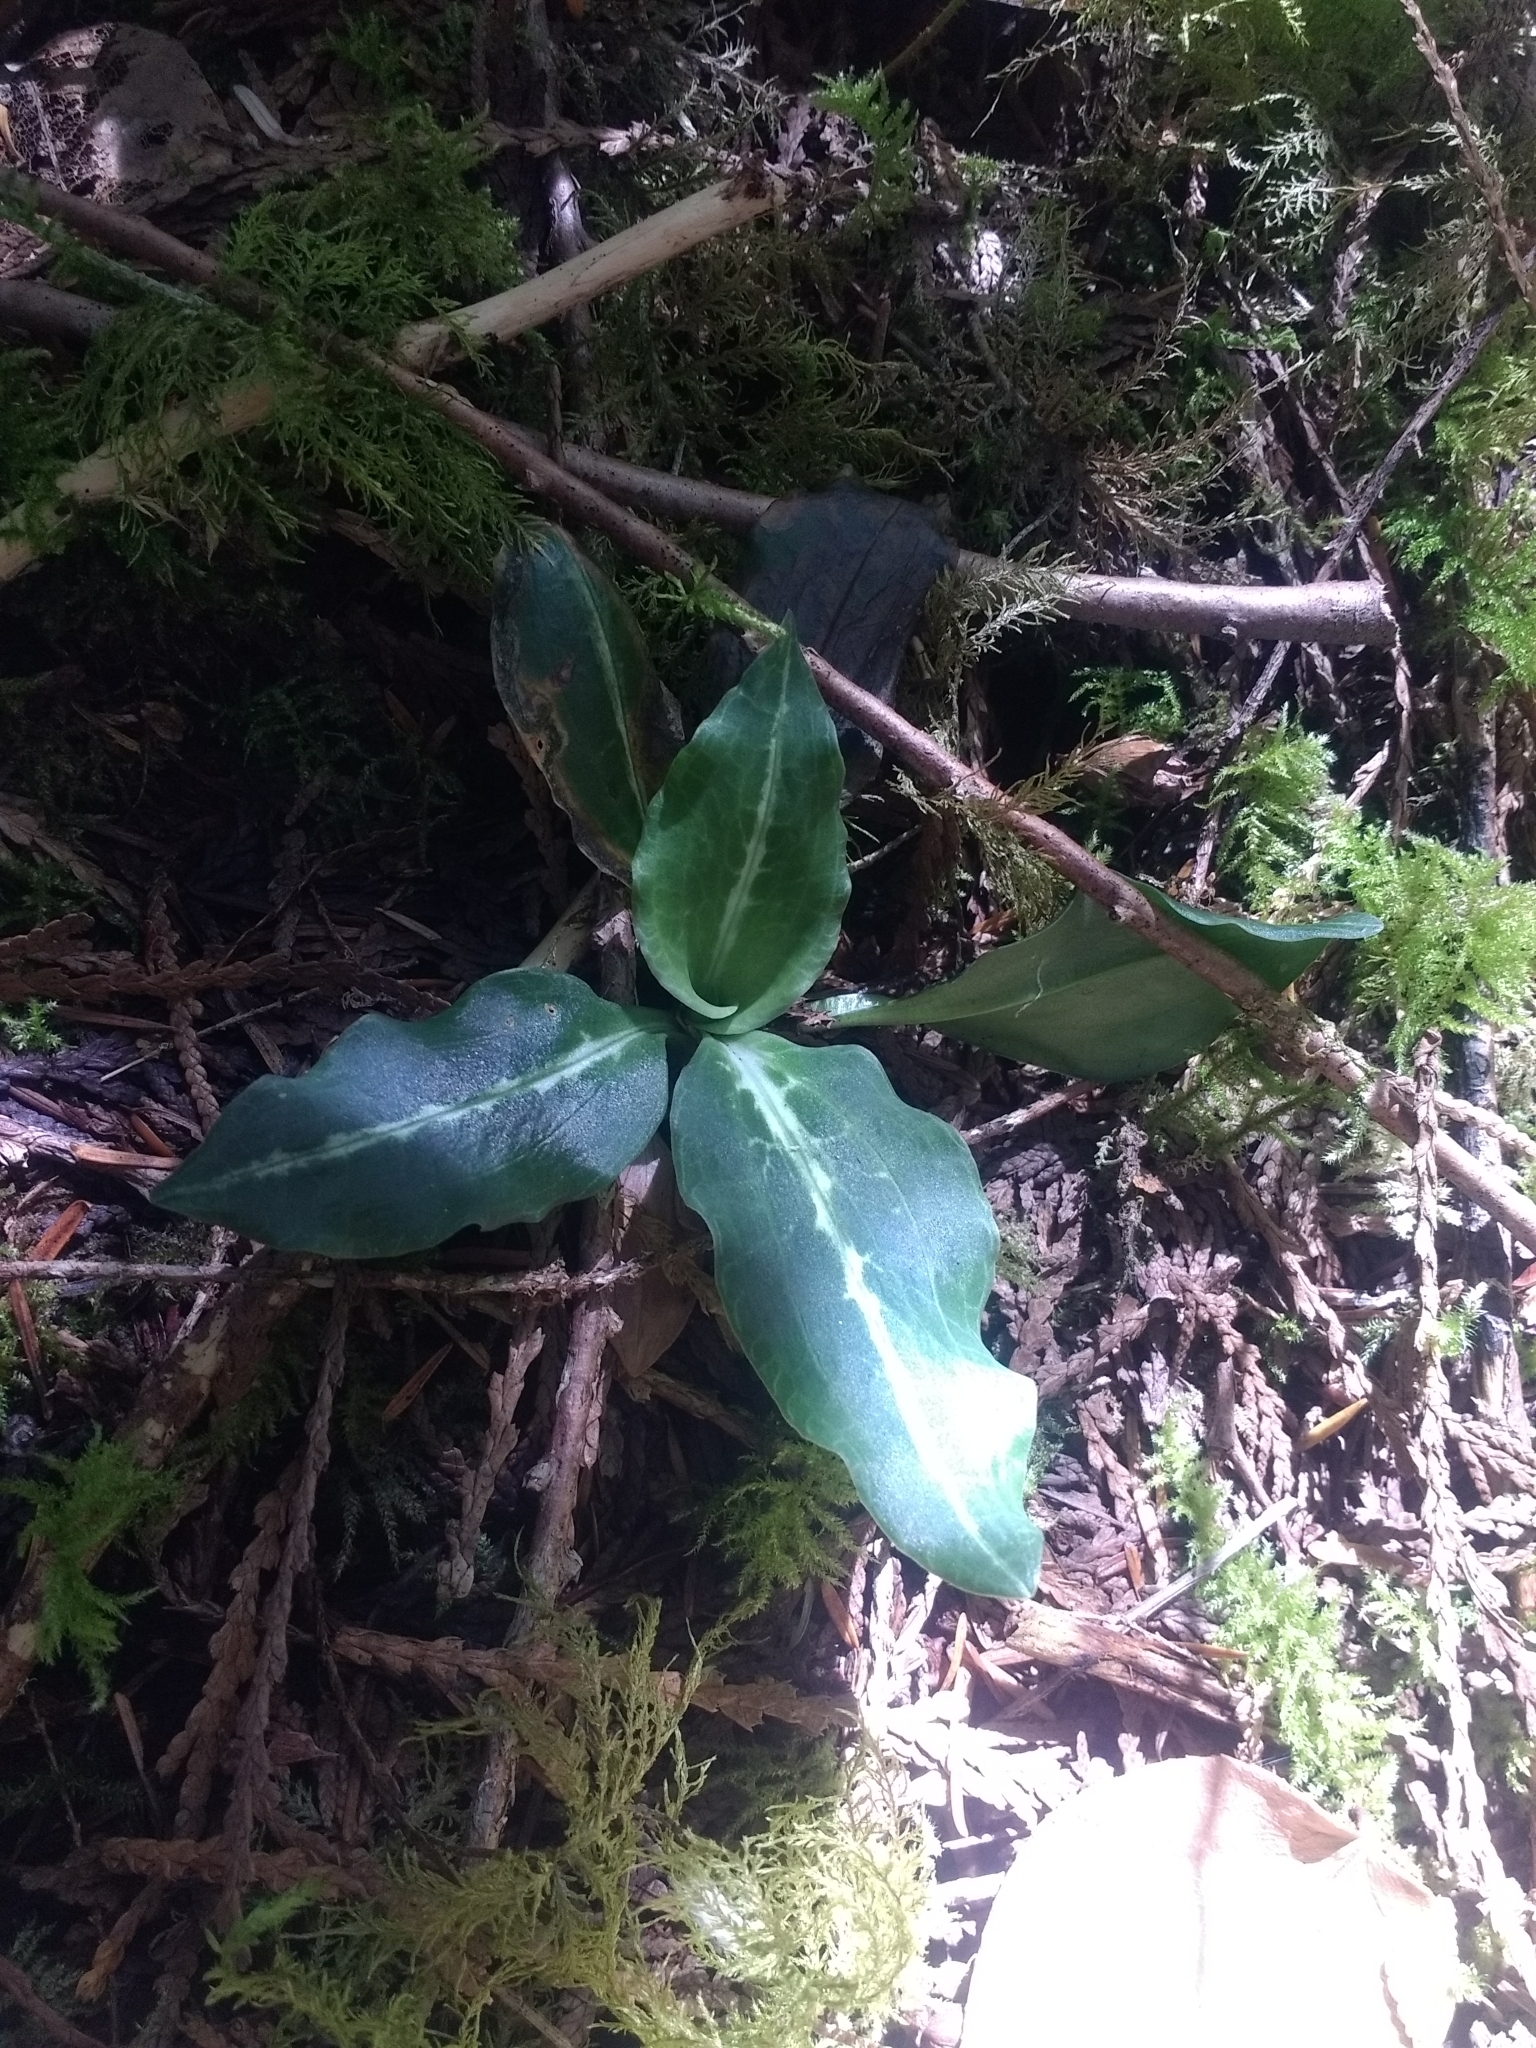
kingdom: Plantae
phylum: Tracheophyta
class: Liliopsida
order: Asparagales
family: Orchidaceae
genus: Goodyera
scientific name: Goodyera oblongifolia
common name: Giant rattlesnake-plantain
